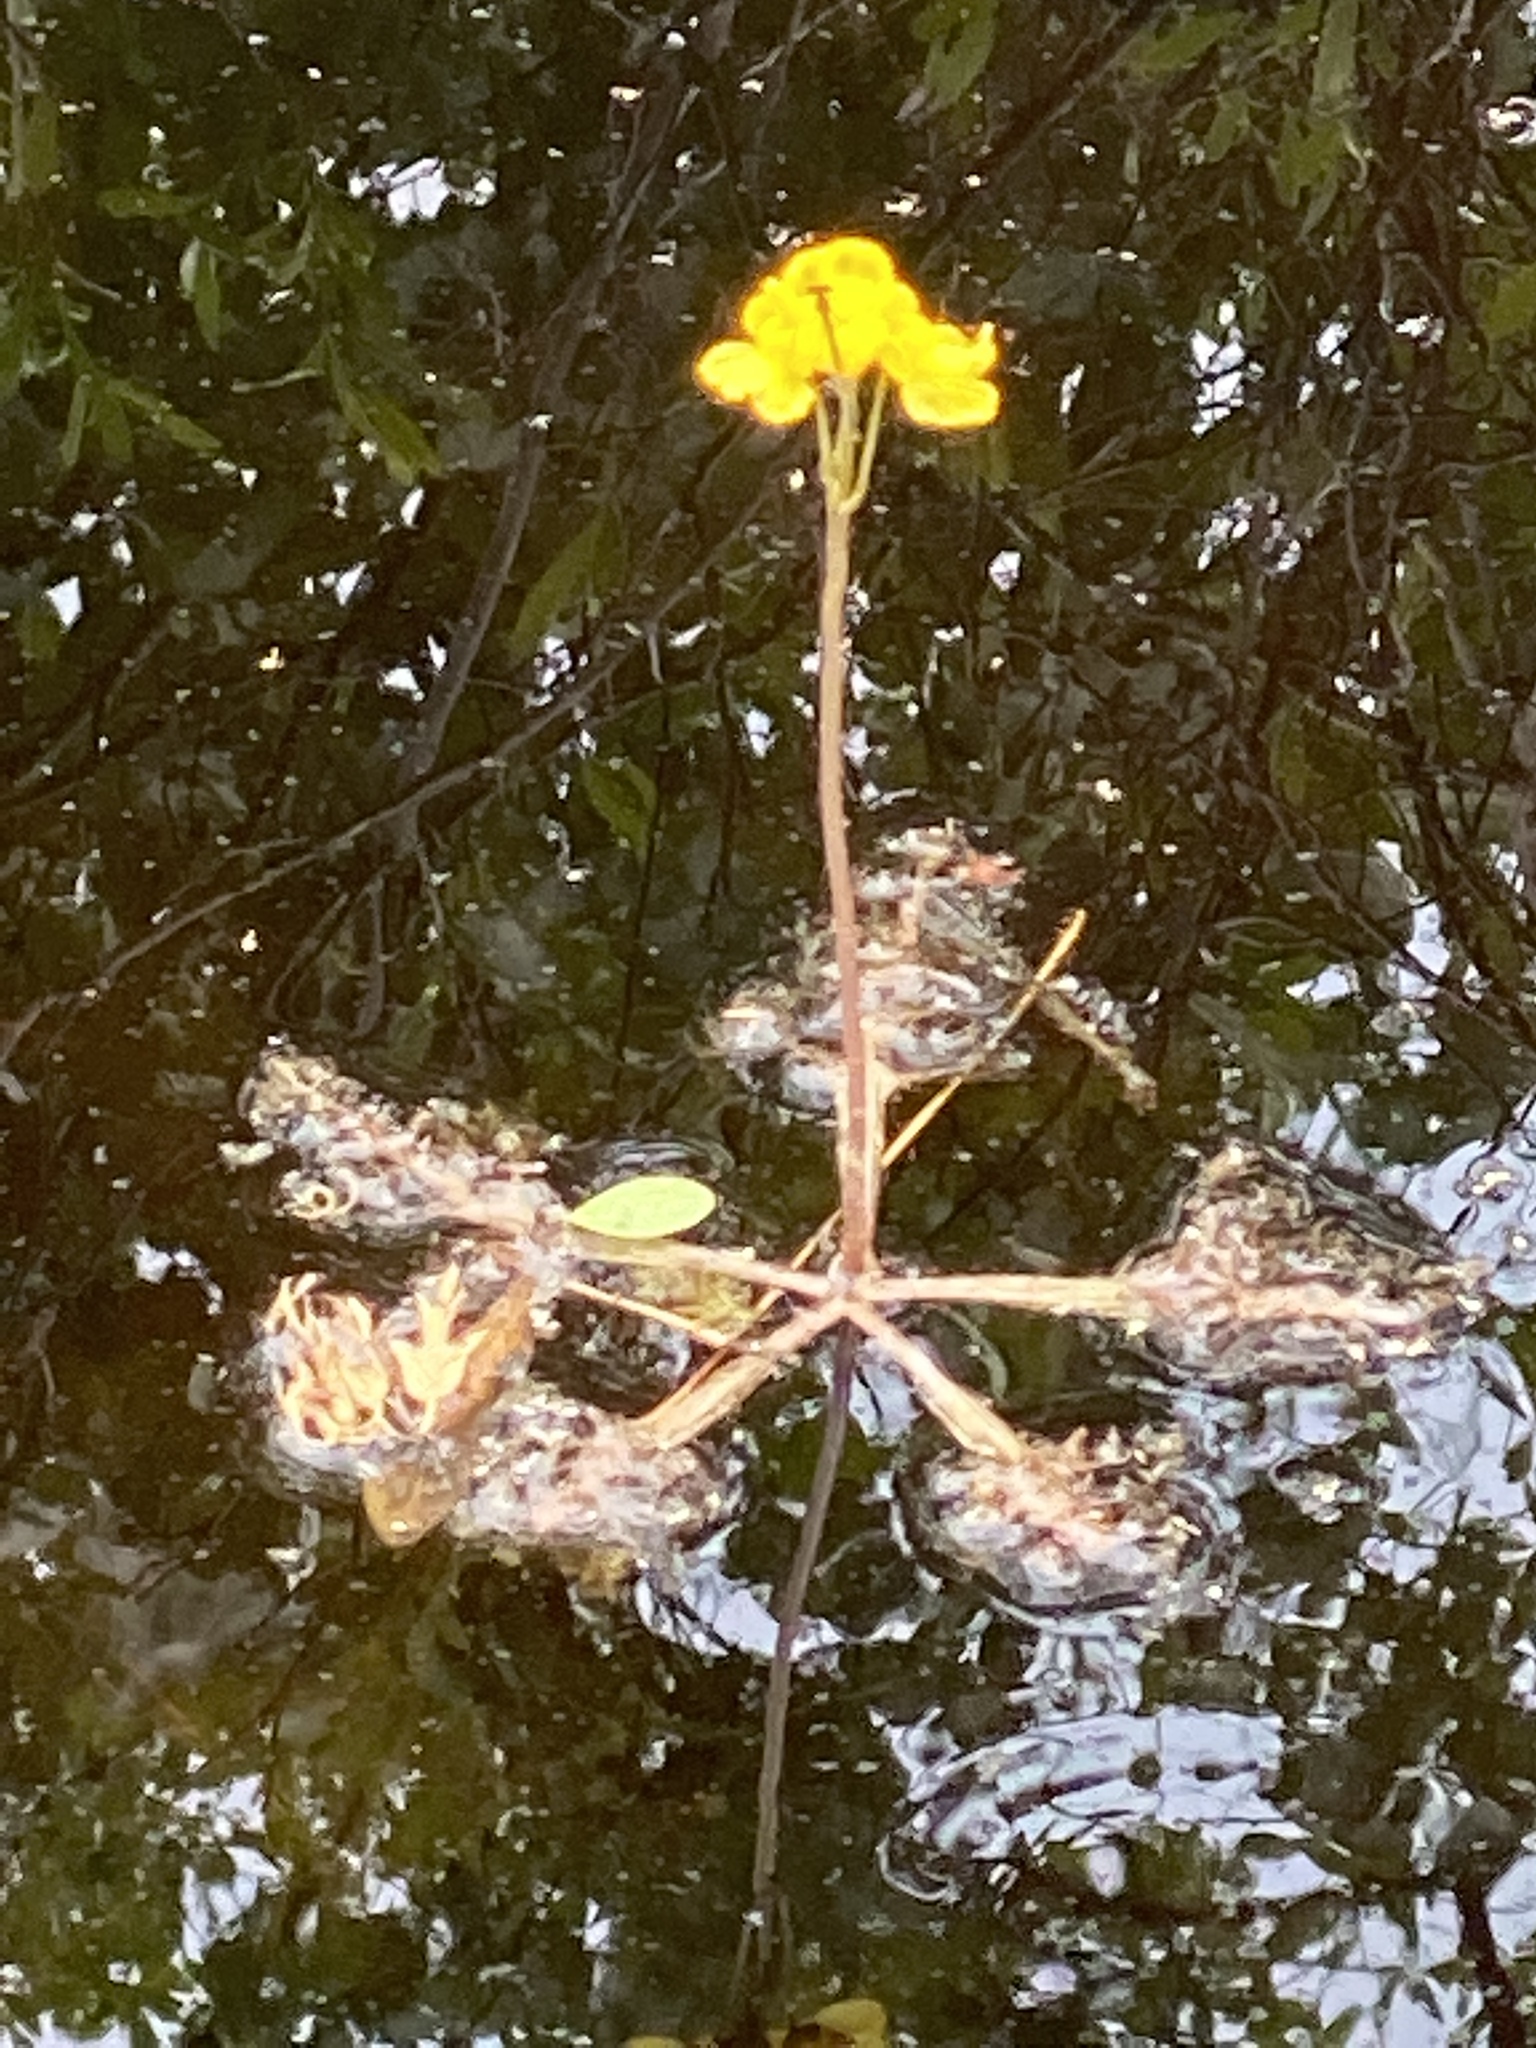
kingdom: Plantae
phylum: Tracheophyta
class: Magnoliopsida
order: Lamiales
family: Lentibulariaceae
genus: Utricularia
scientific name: Utricularia radiata
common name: Floating bladderwort
